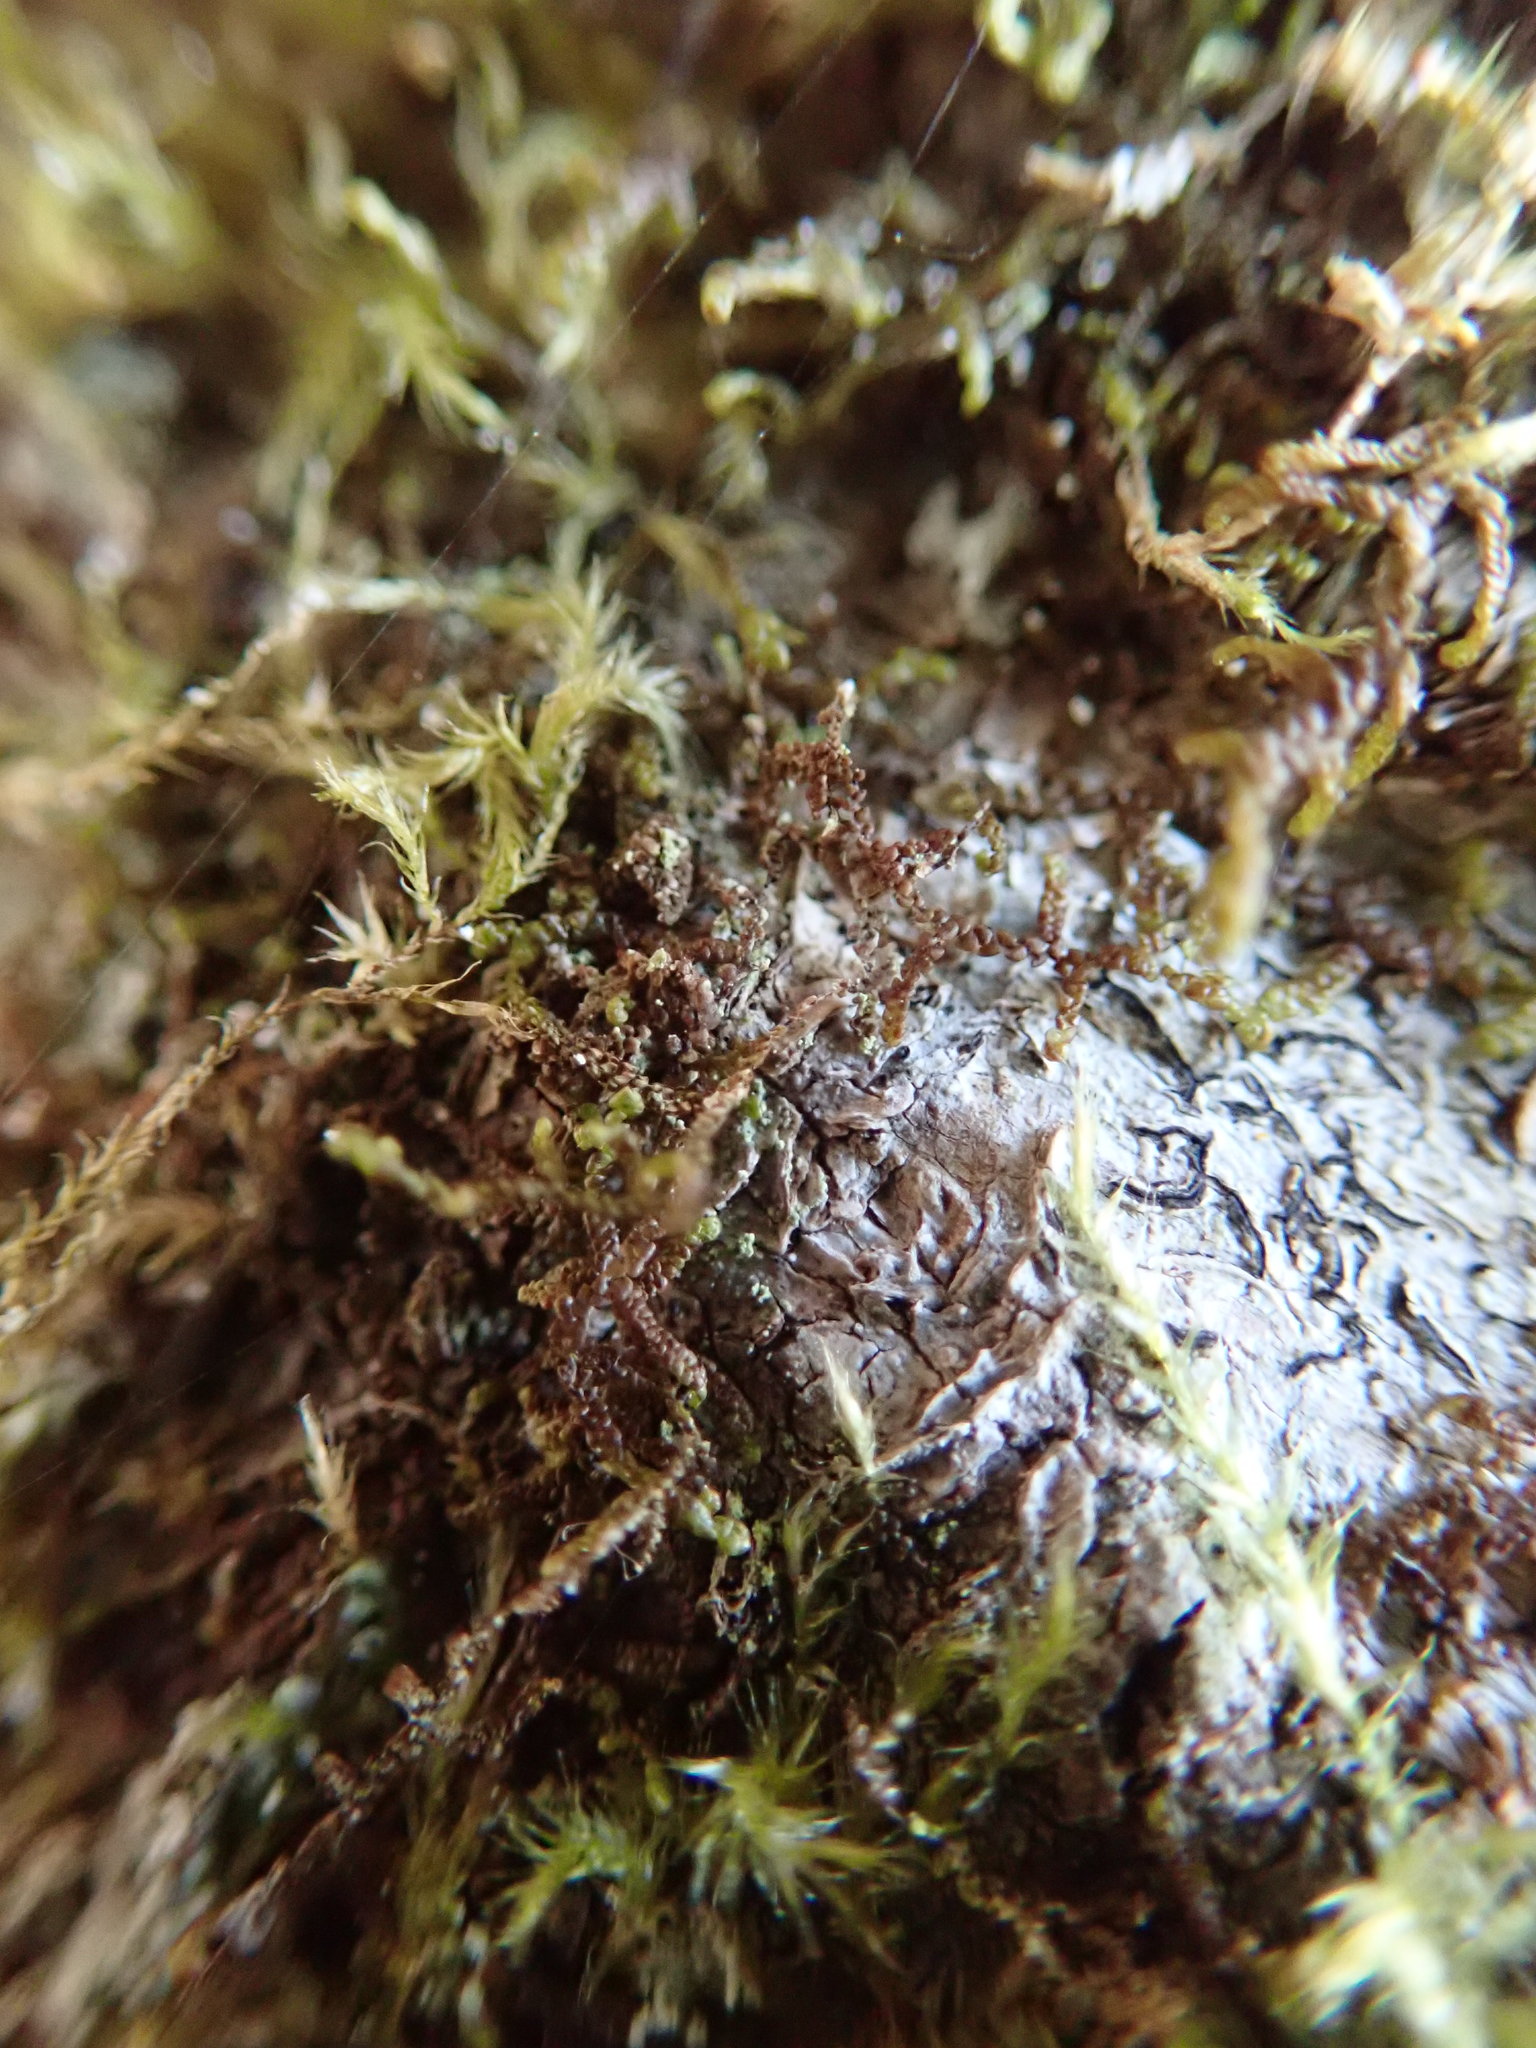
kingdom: Plantae
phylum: Marchantiophyta
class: Jungermanniopsida
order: Porellales
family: Frullaniaceae
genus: Frullania
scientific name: Frullania nisquallensis
